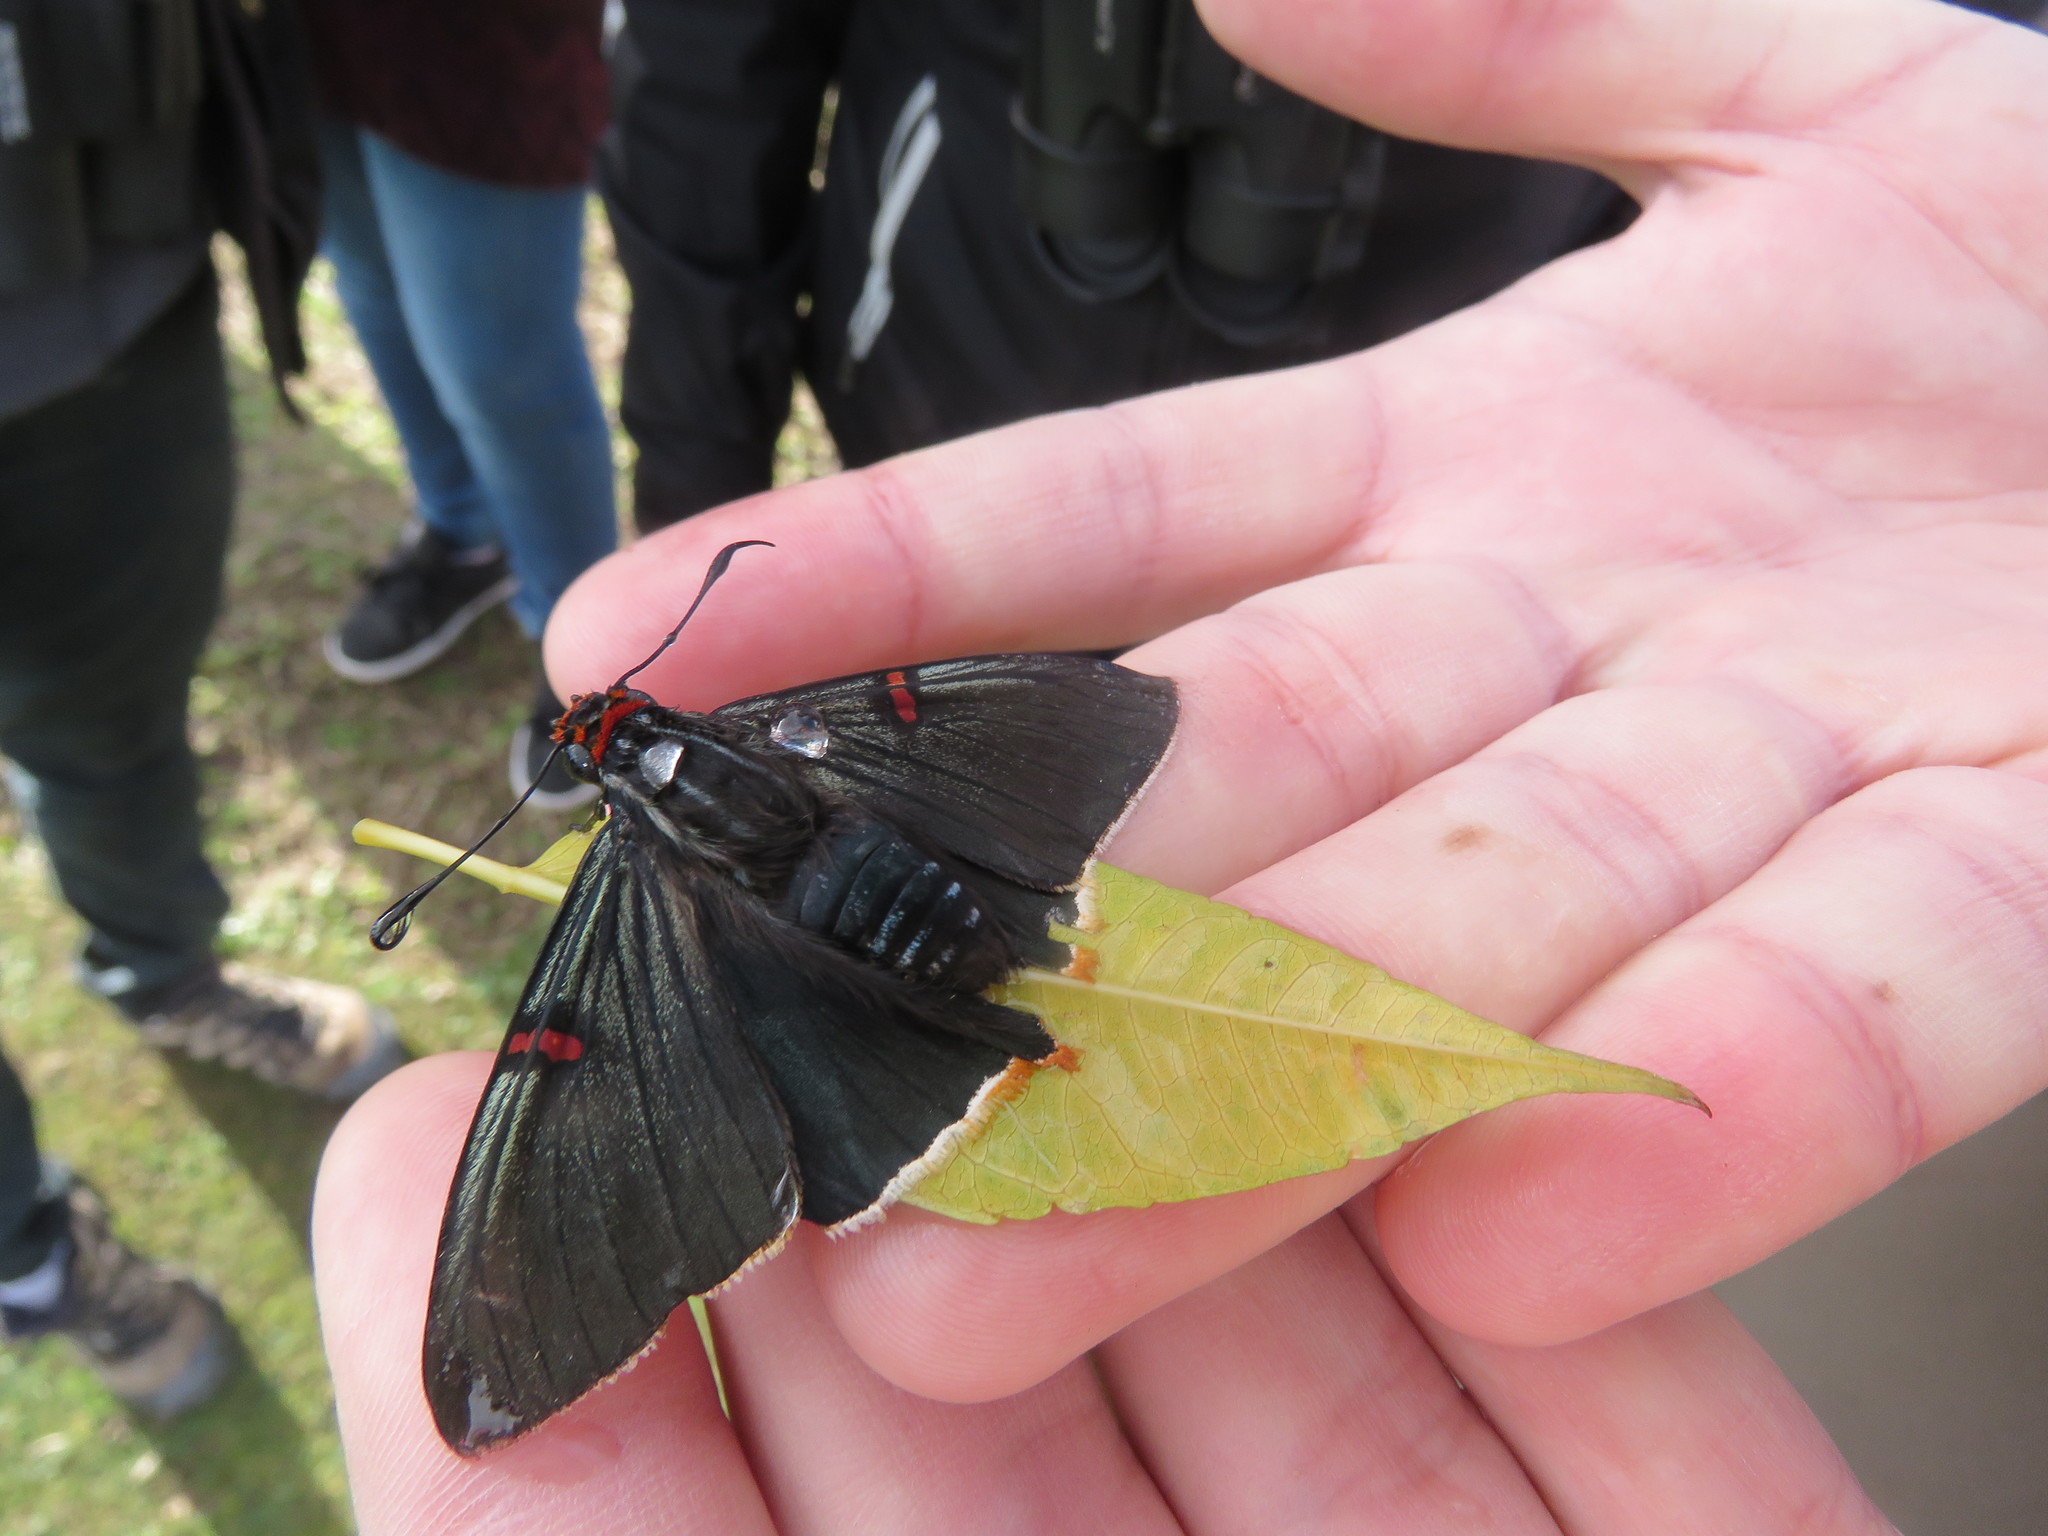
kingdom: Animalia
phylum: Arthropoda
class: Insecta
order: Lepidoptera
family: Hesperiidae
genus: Phocides
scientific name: Phocides polybius
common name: Guava skipper
